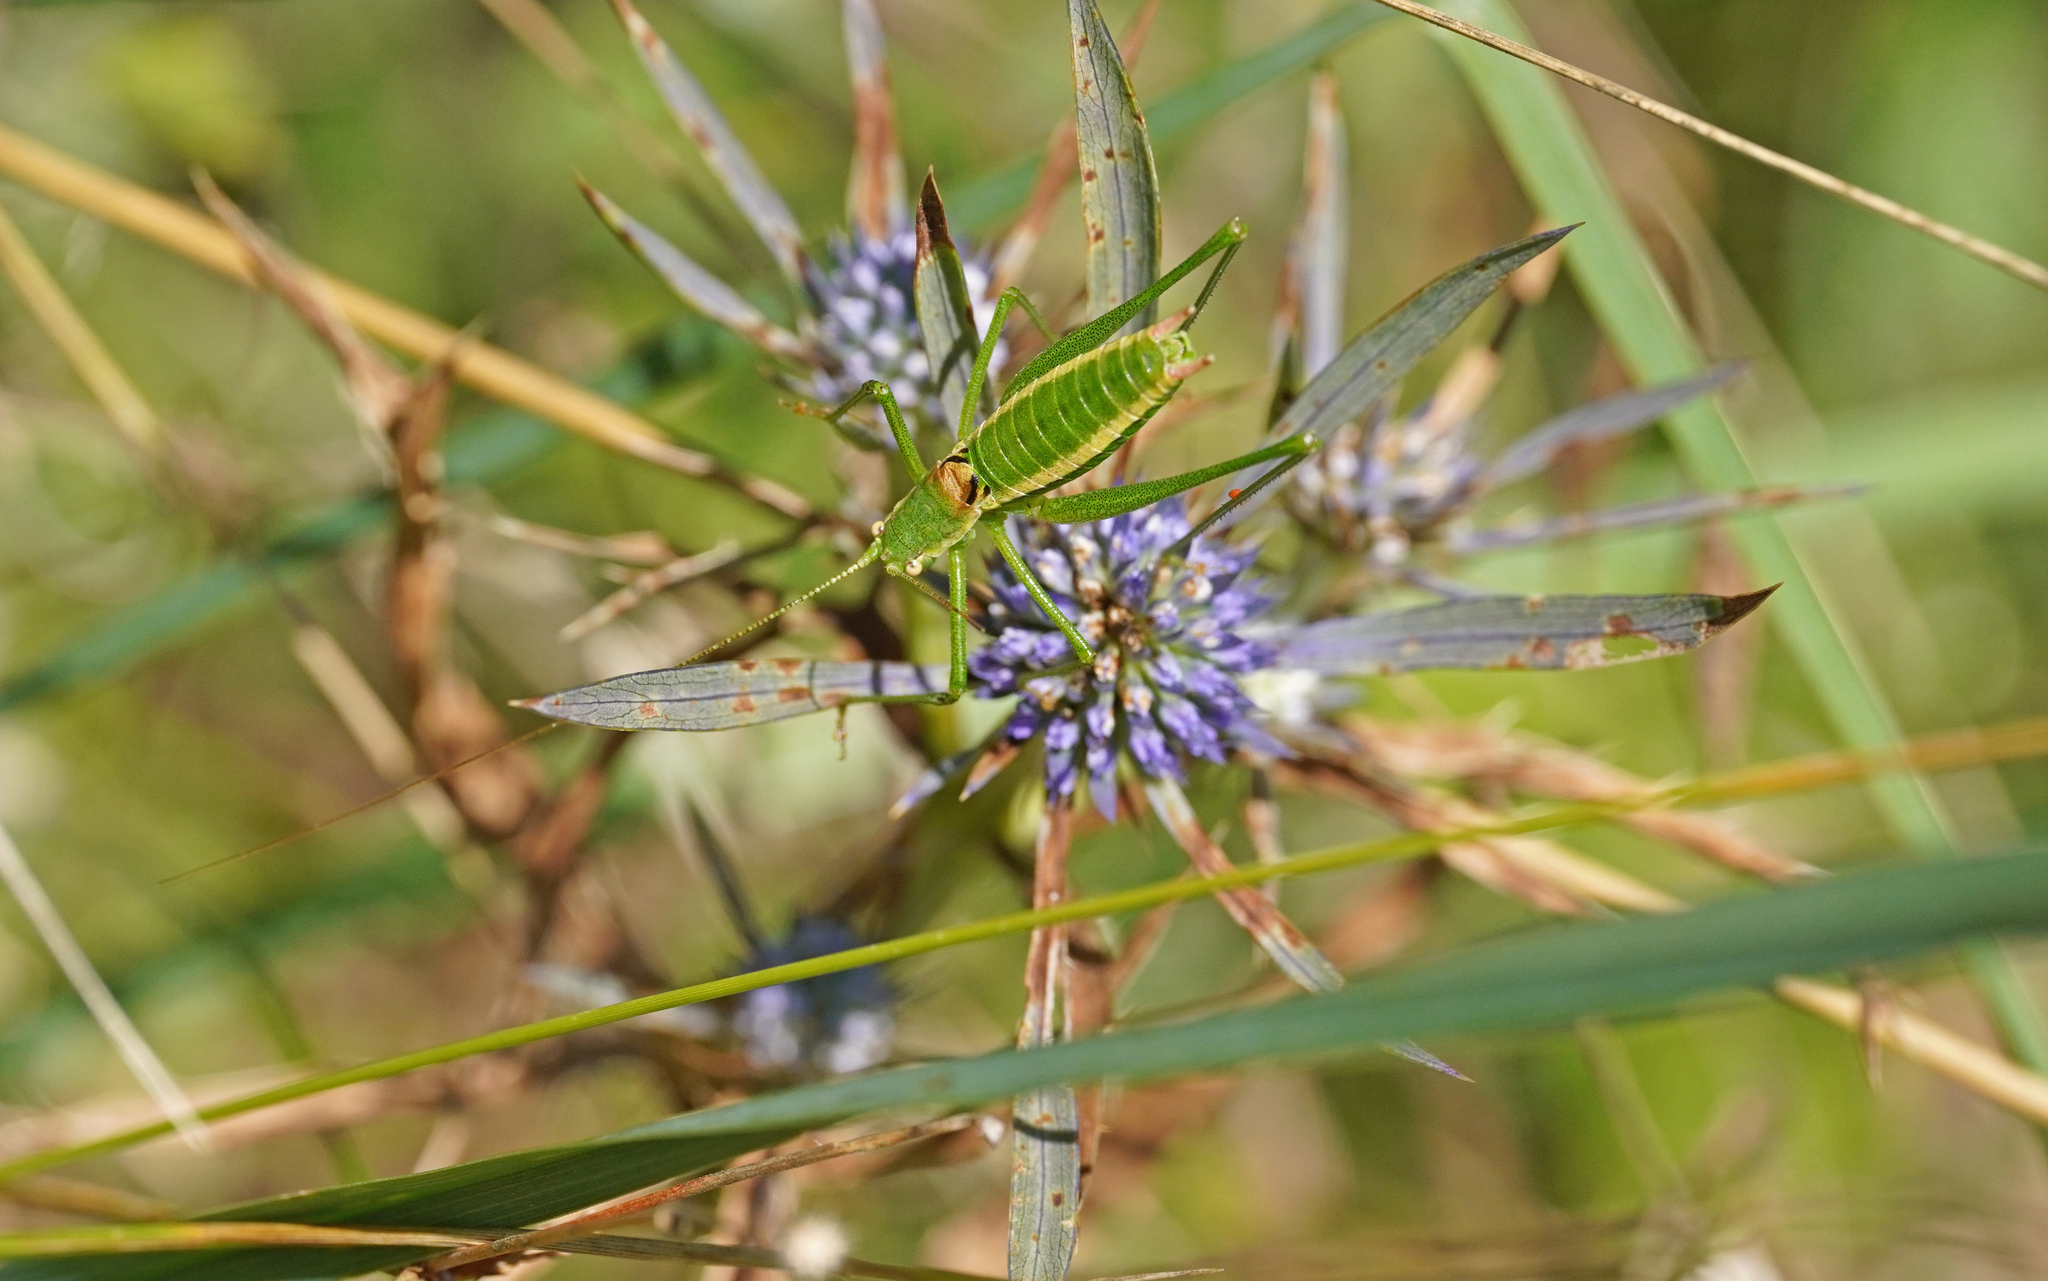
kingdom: Animalia
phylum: Arthropoda
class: Insecta
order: Orthoptera
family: Tettigoniidae
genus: Leptophyes
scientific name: Leptophyes boscii
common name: Balkan speckled bush-cricket
